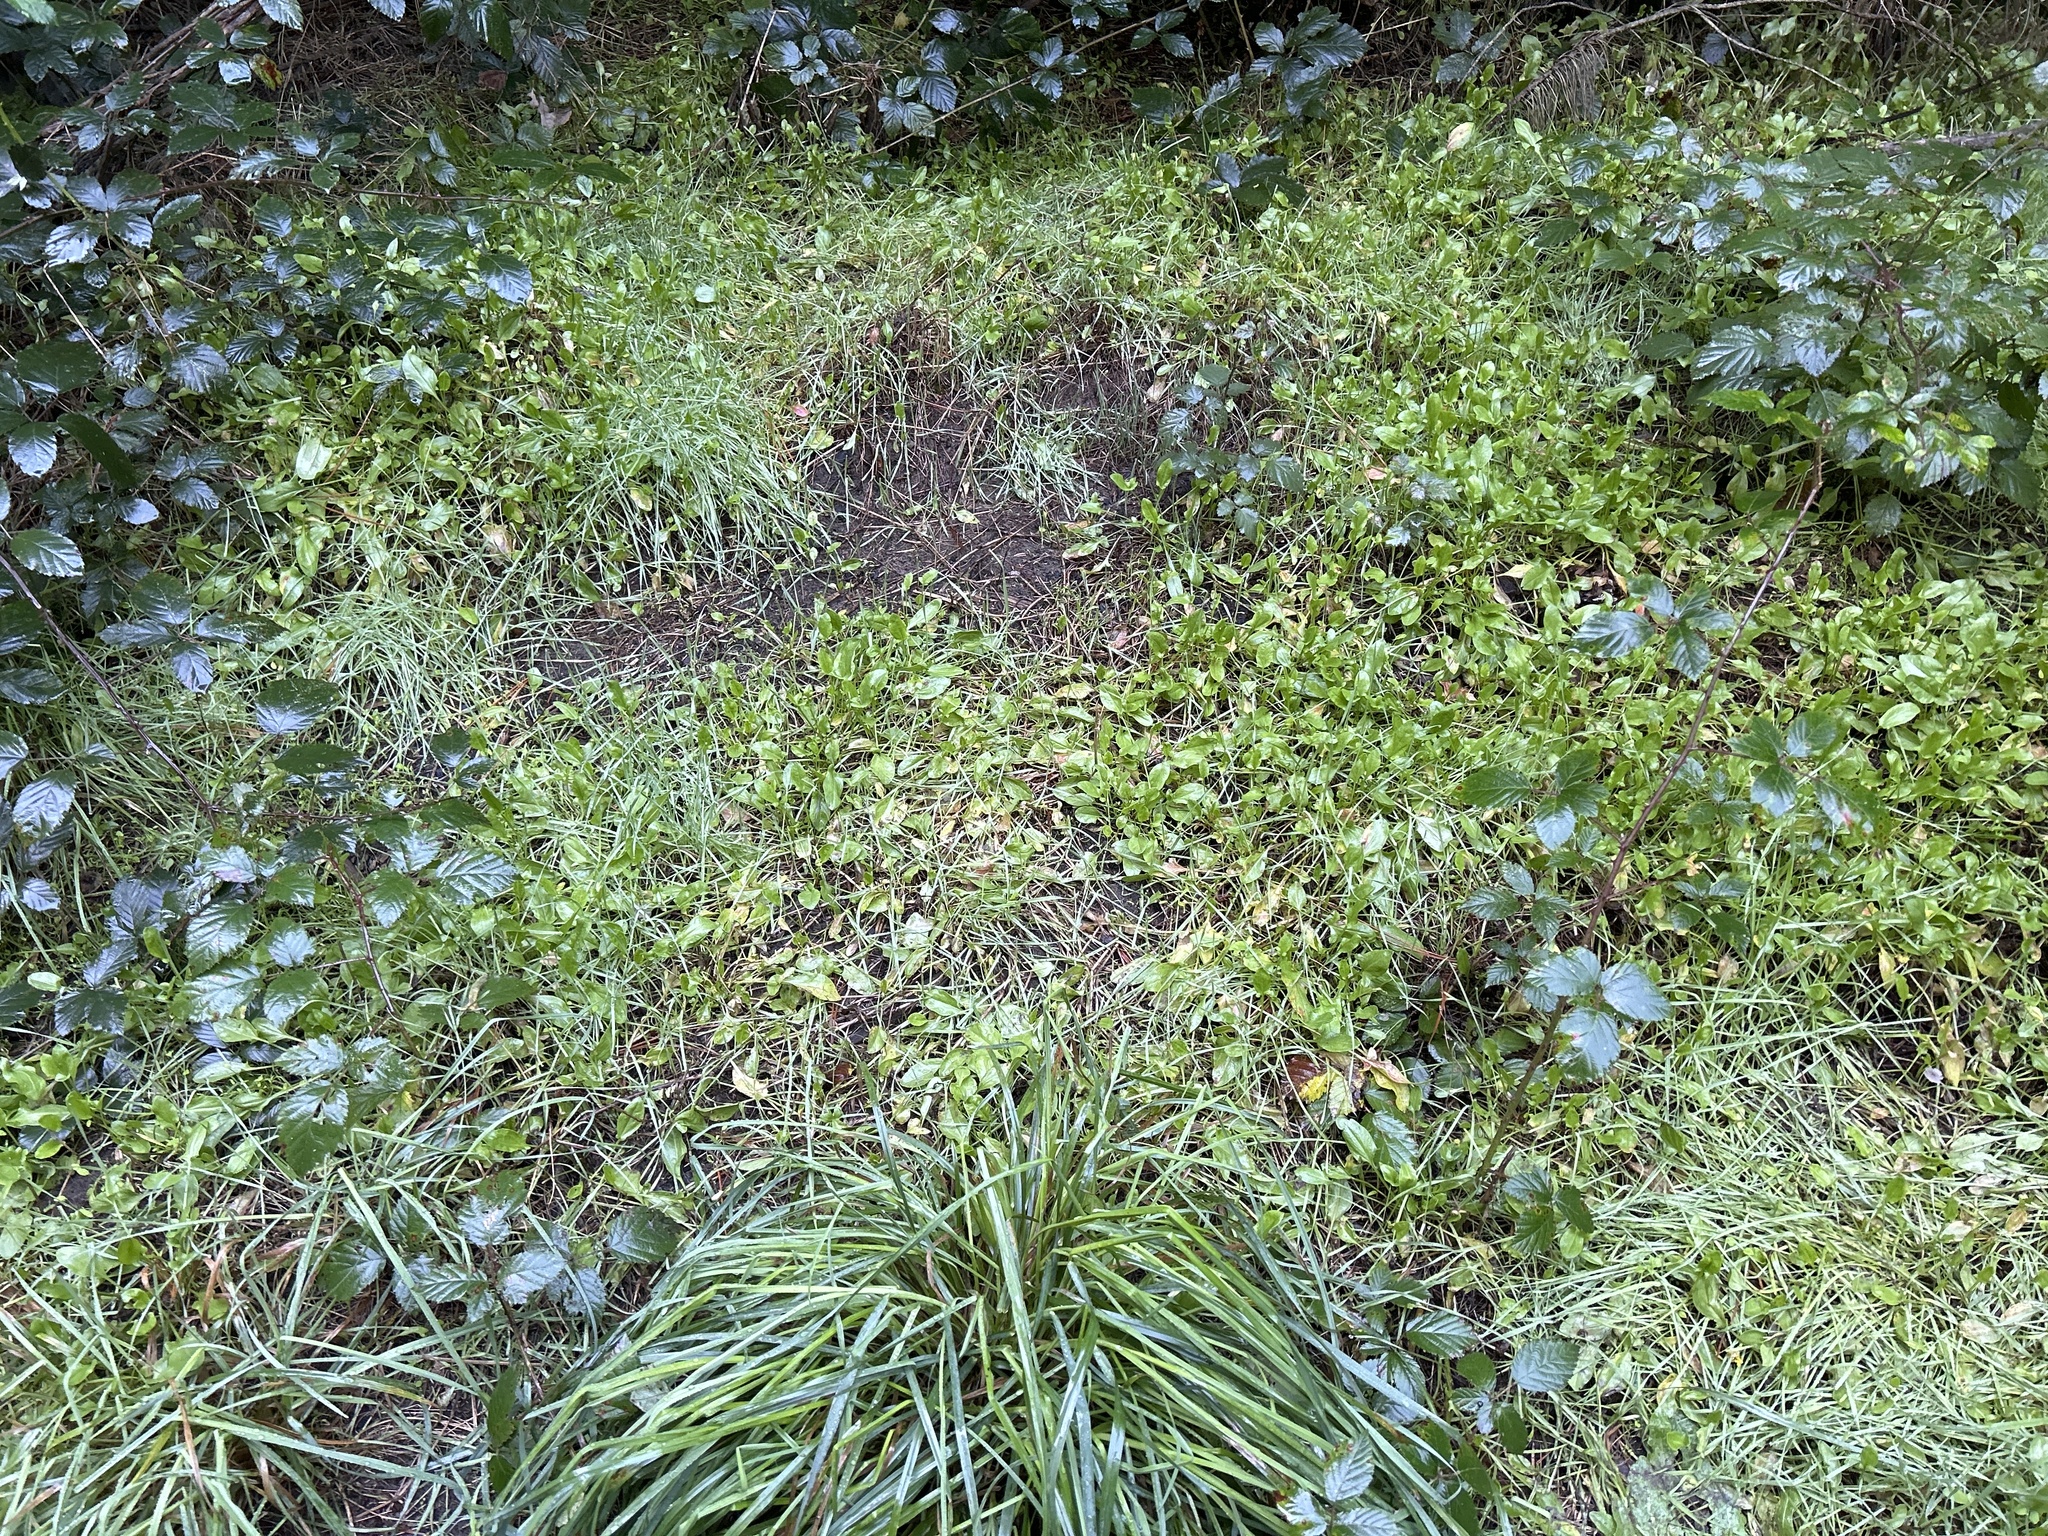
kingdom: Plantae
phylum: Tracheophyta
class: Magnoliopsida
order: Caryophyllales
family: Polygonaceae
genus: Rumex
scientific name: Rumex acetosella
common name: Common sheep sorrel
